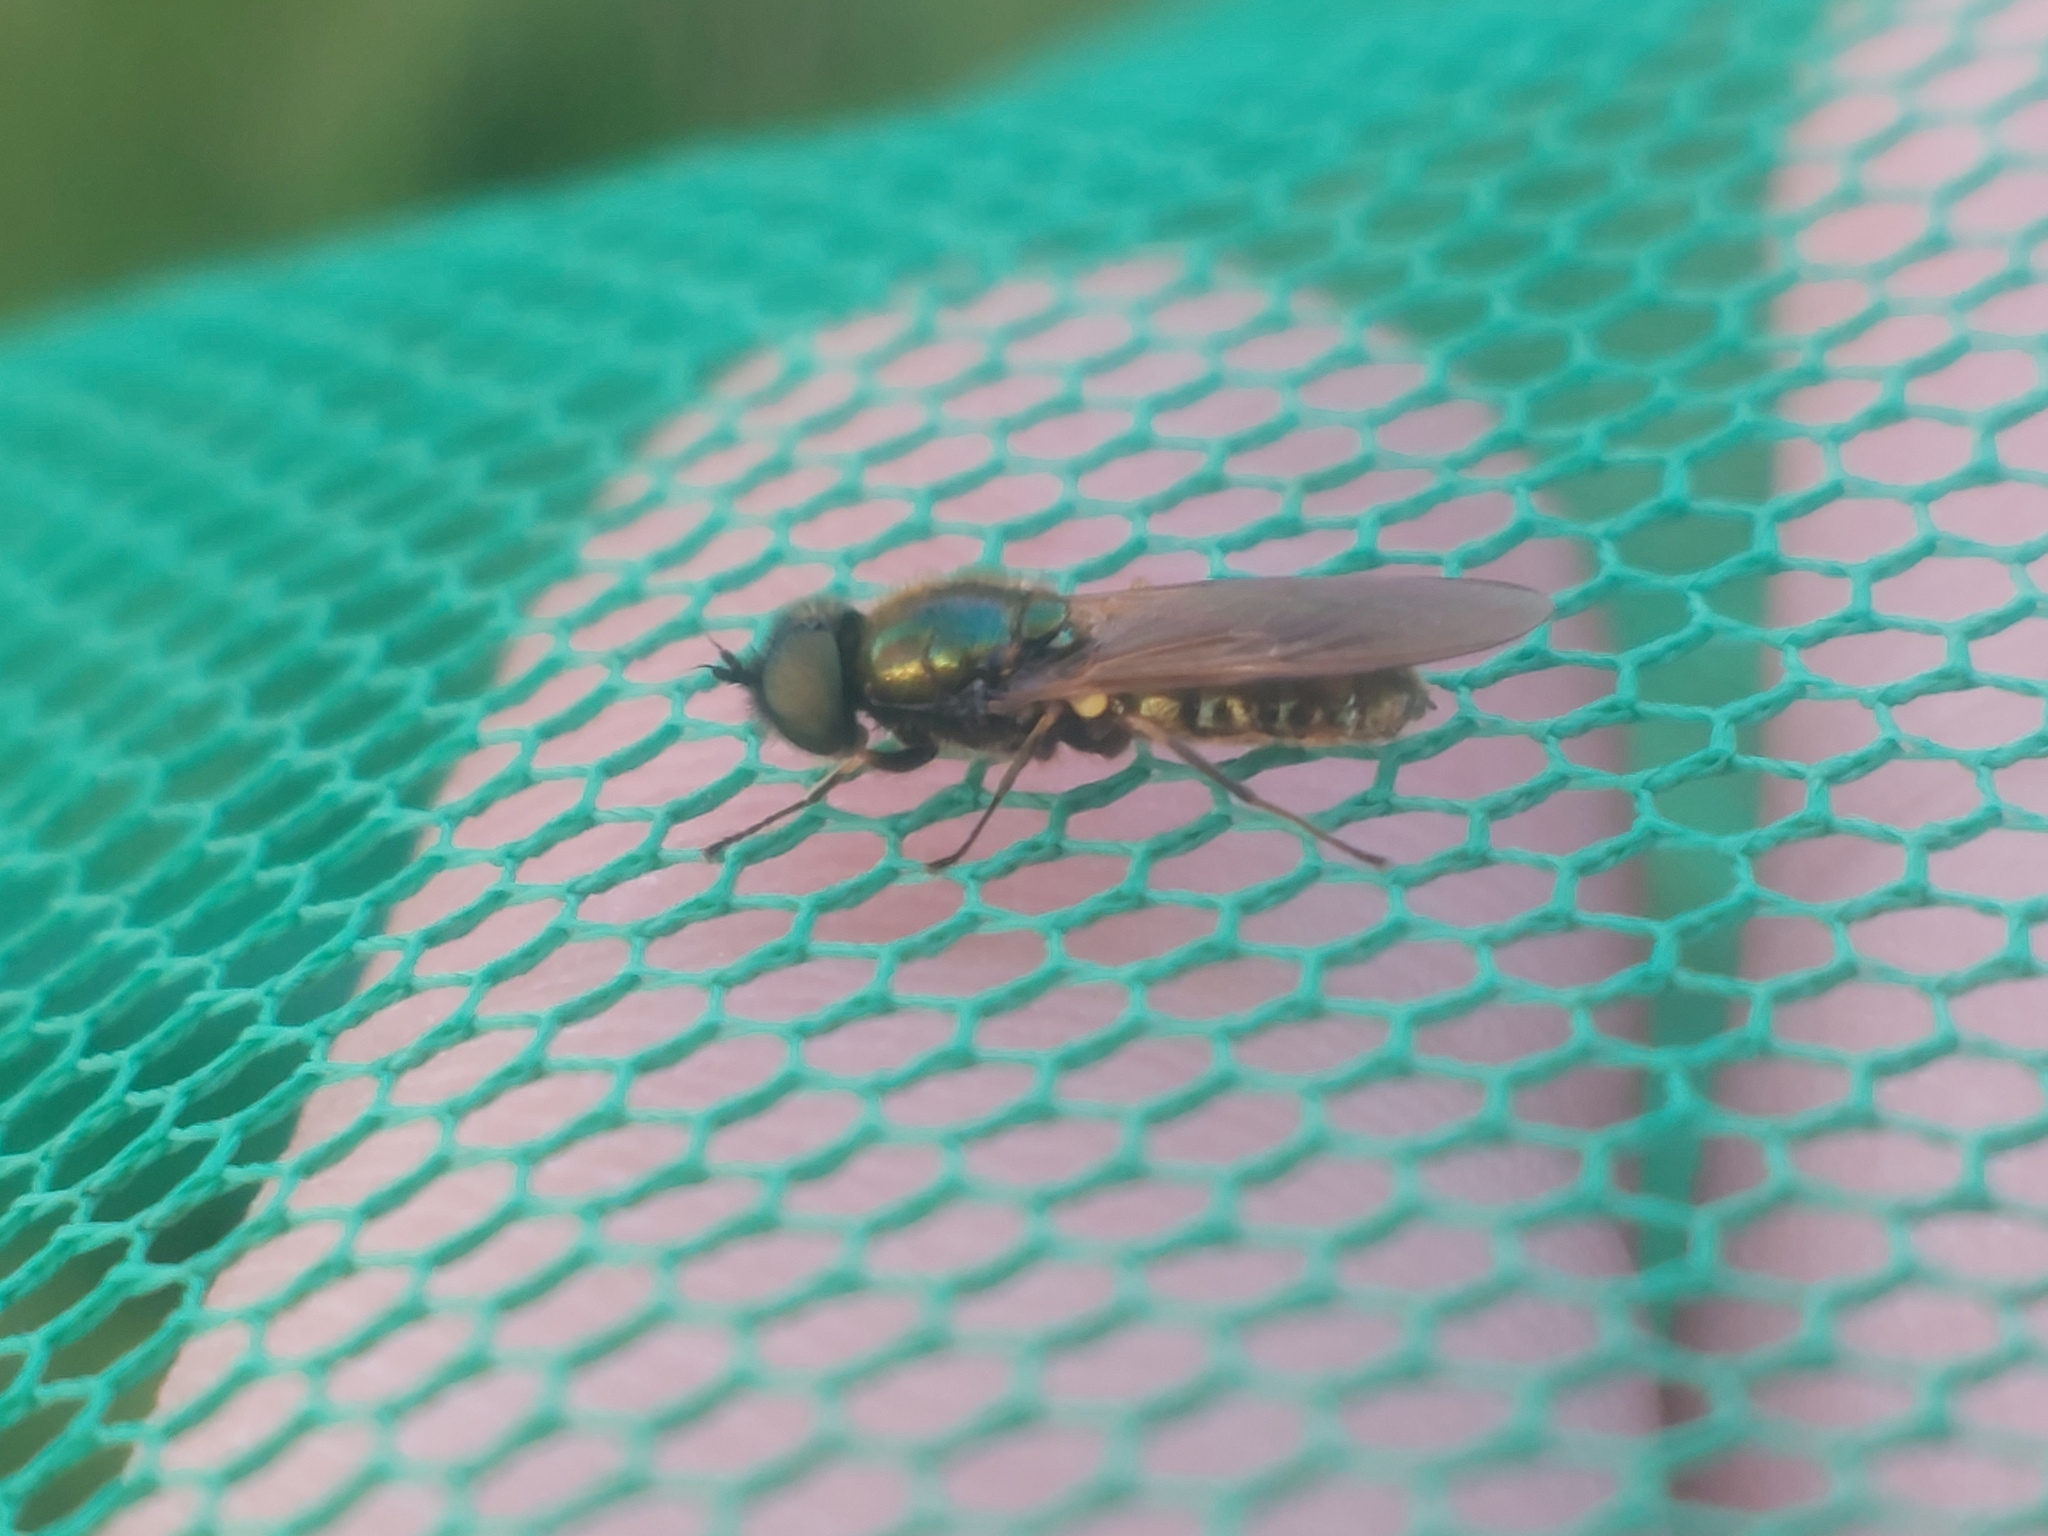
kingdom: Animalia
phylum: Arthropoda
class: Insecta
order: Diptera
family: Stratiomyidae
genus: Chloromyia
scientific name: Chloromyia formosa
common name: Soldier fly
